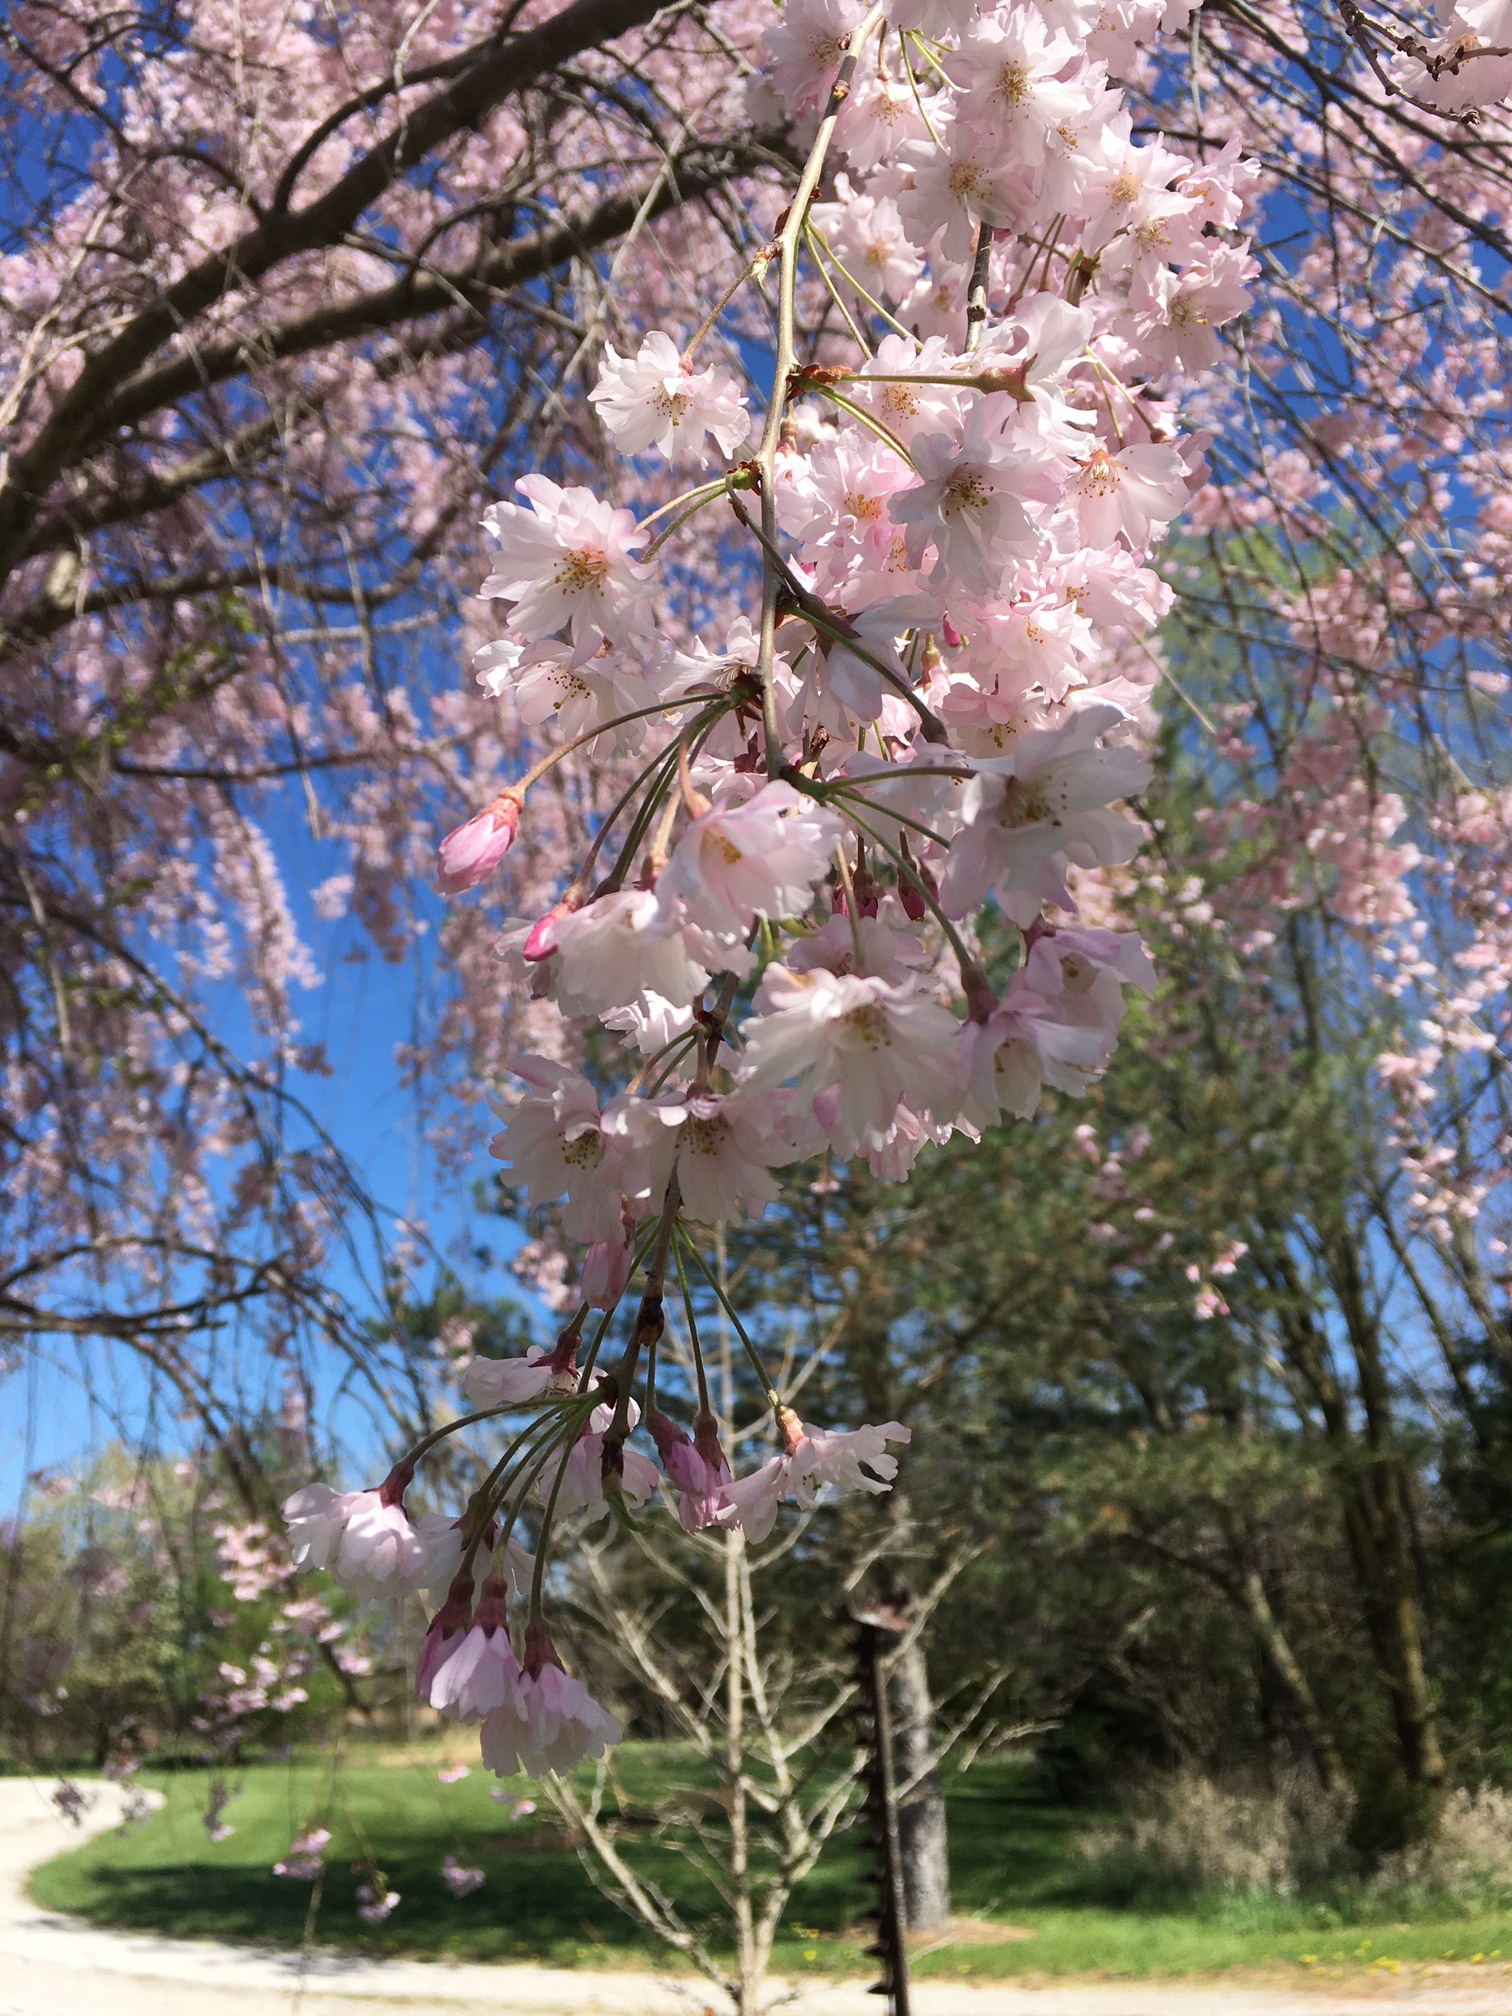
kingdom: Plantae
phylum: Tracheophyta
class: Magnoliopsida
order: Rosales
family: Rosaceae
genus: Prunus
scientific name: Prunus
